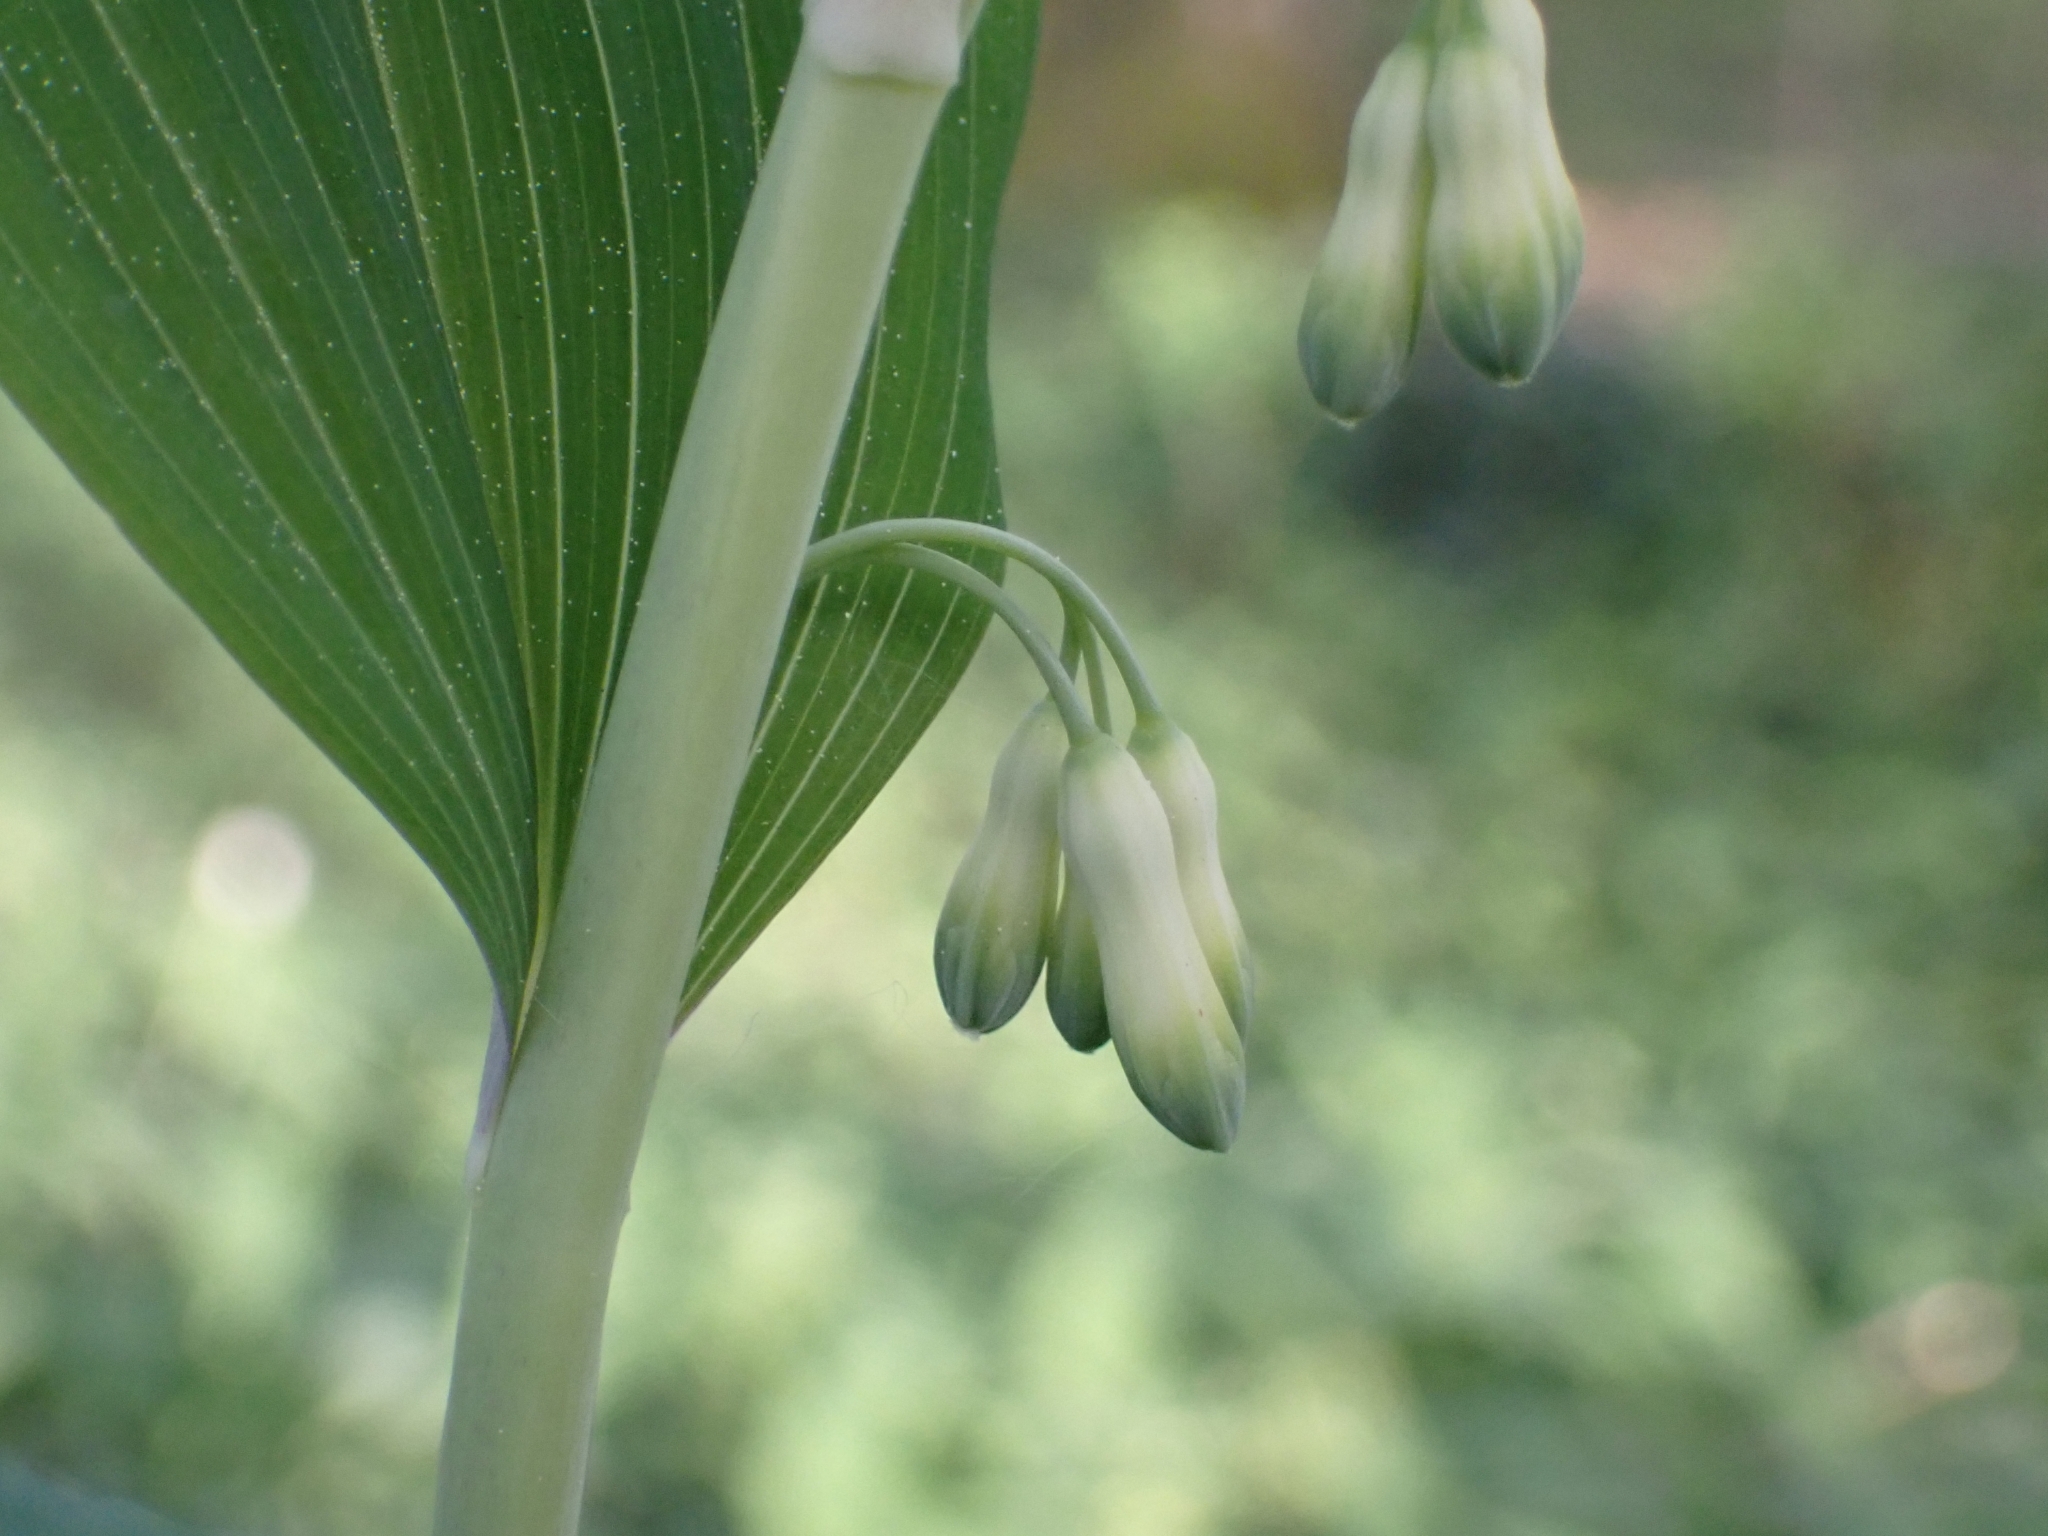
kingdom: Plantae
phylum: Tracheophyta
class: Liliopsida
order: Asparagales
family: Asparagaceae
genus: Polygonatum
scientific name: Polygonatum multiflorum
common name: Solomon's-seal
